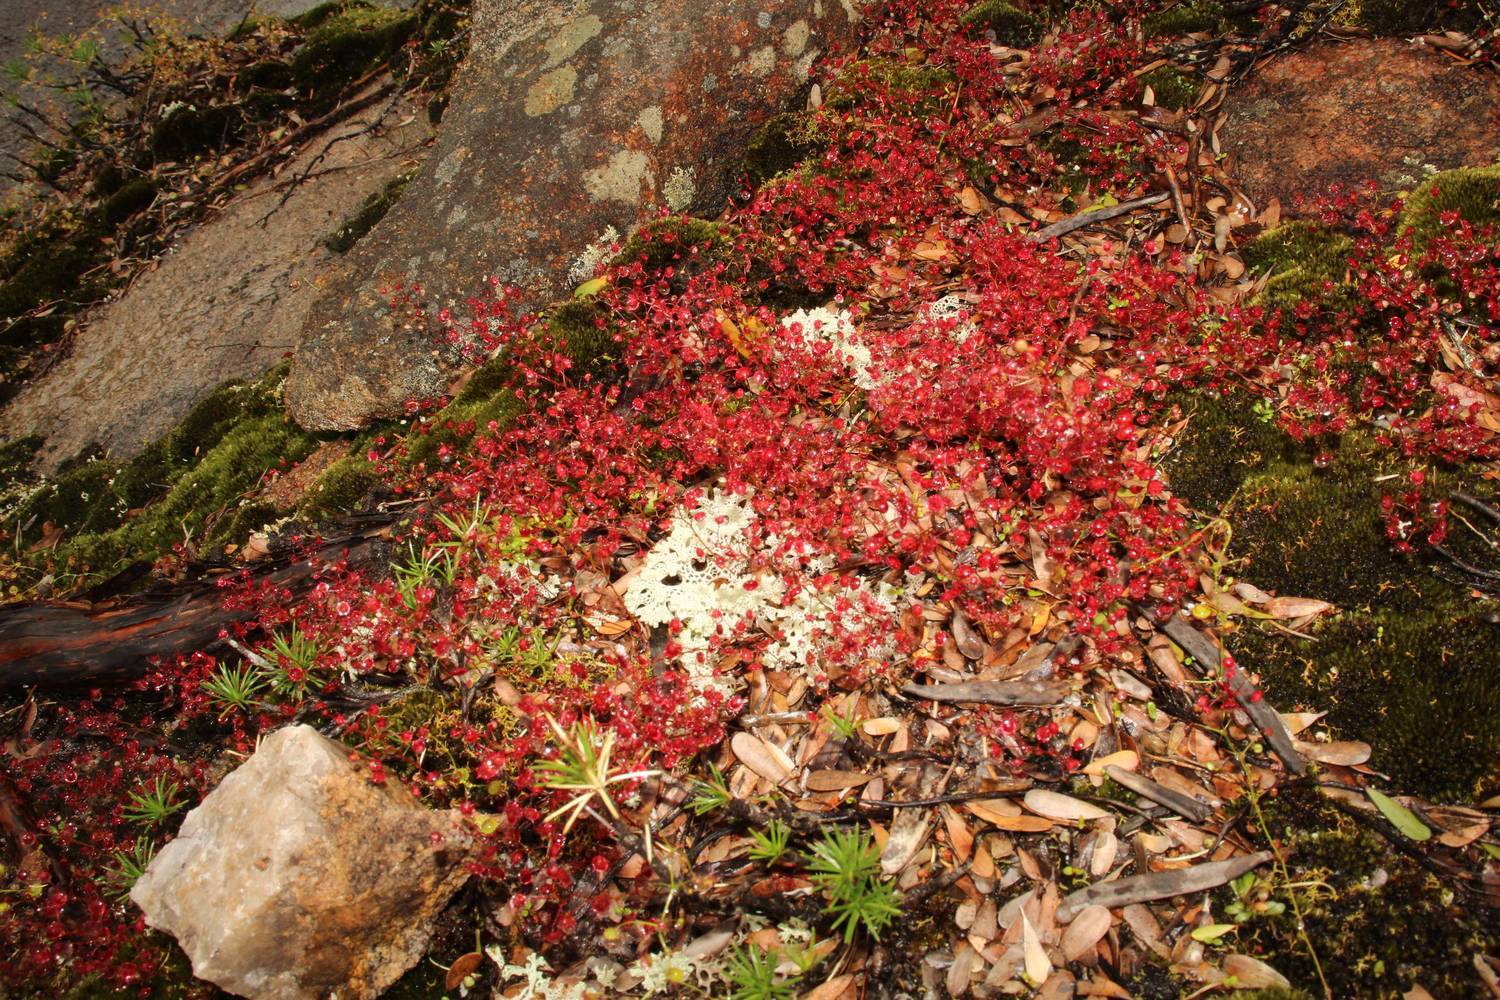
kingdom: Plantae
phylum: Tracheophyta
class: Magnoliopsida
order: Caryophyllales
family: Droseraceae
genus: Drosera
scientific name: Drosera esperensis
